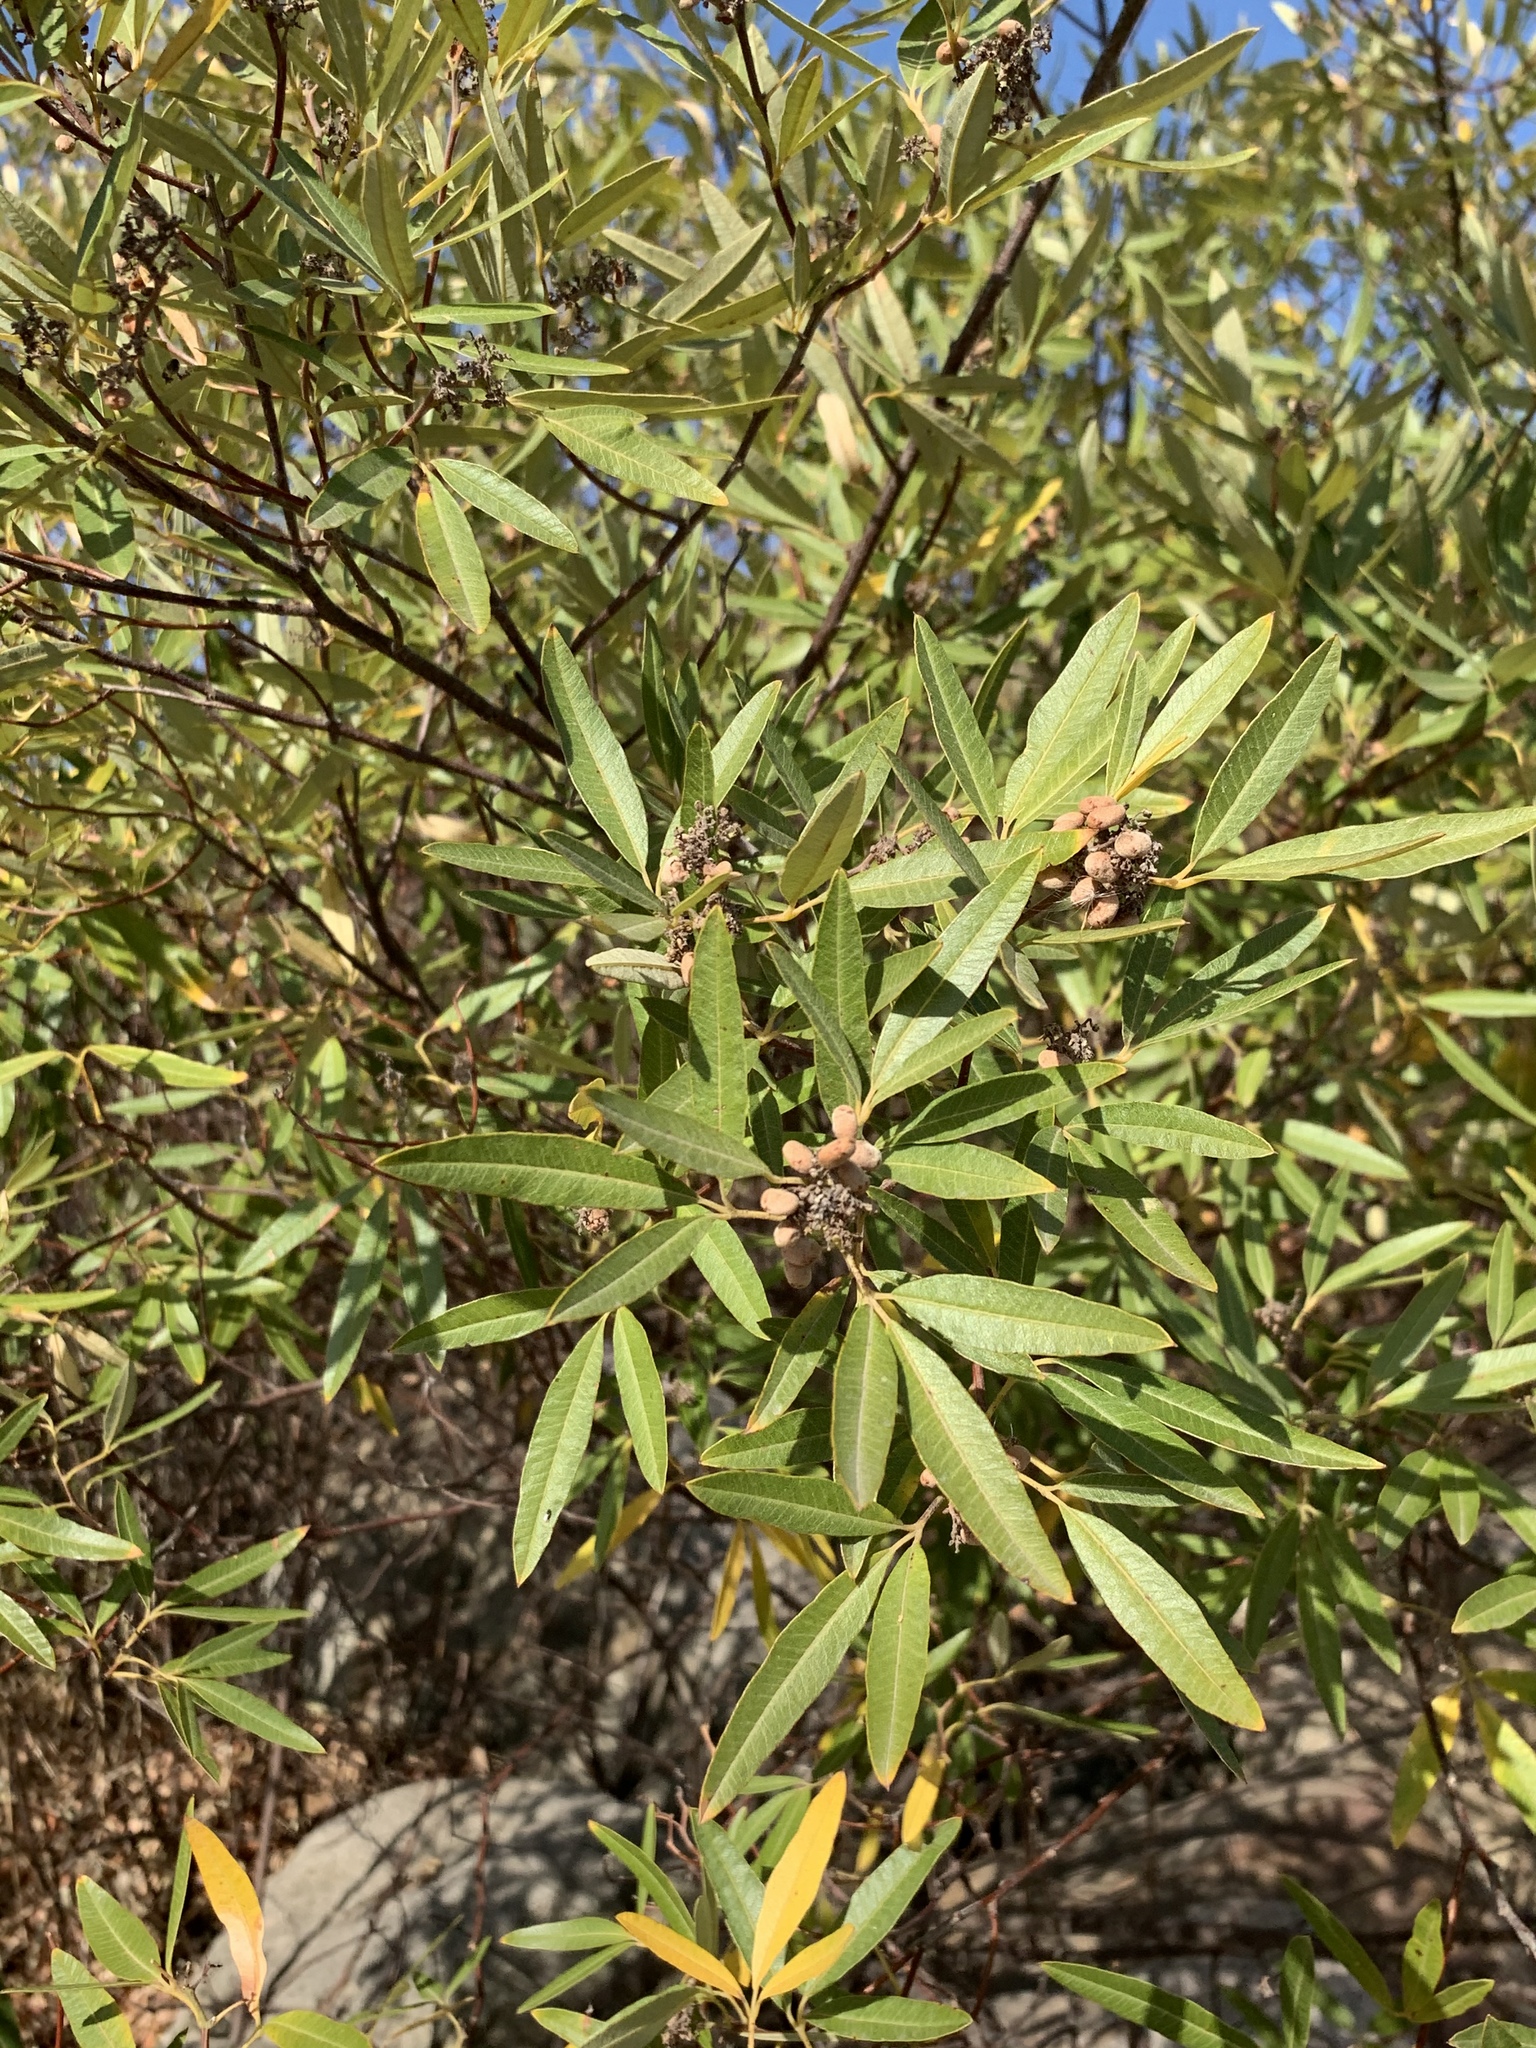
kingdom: Plantae
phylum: Tracheophyta
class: Magnoliopsida
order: Sapindales
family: Anacardiaceae
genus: Searsia
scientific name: Searsia angustifolia
